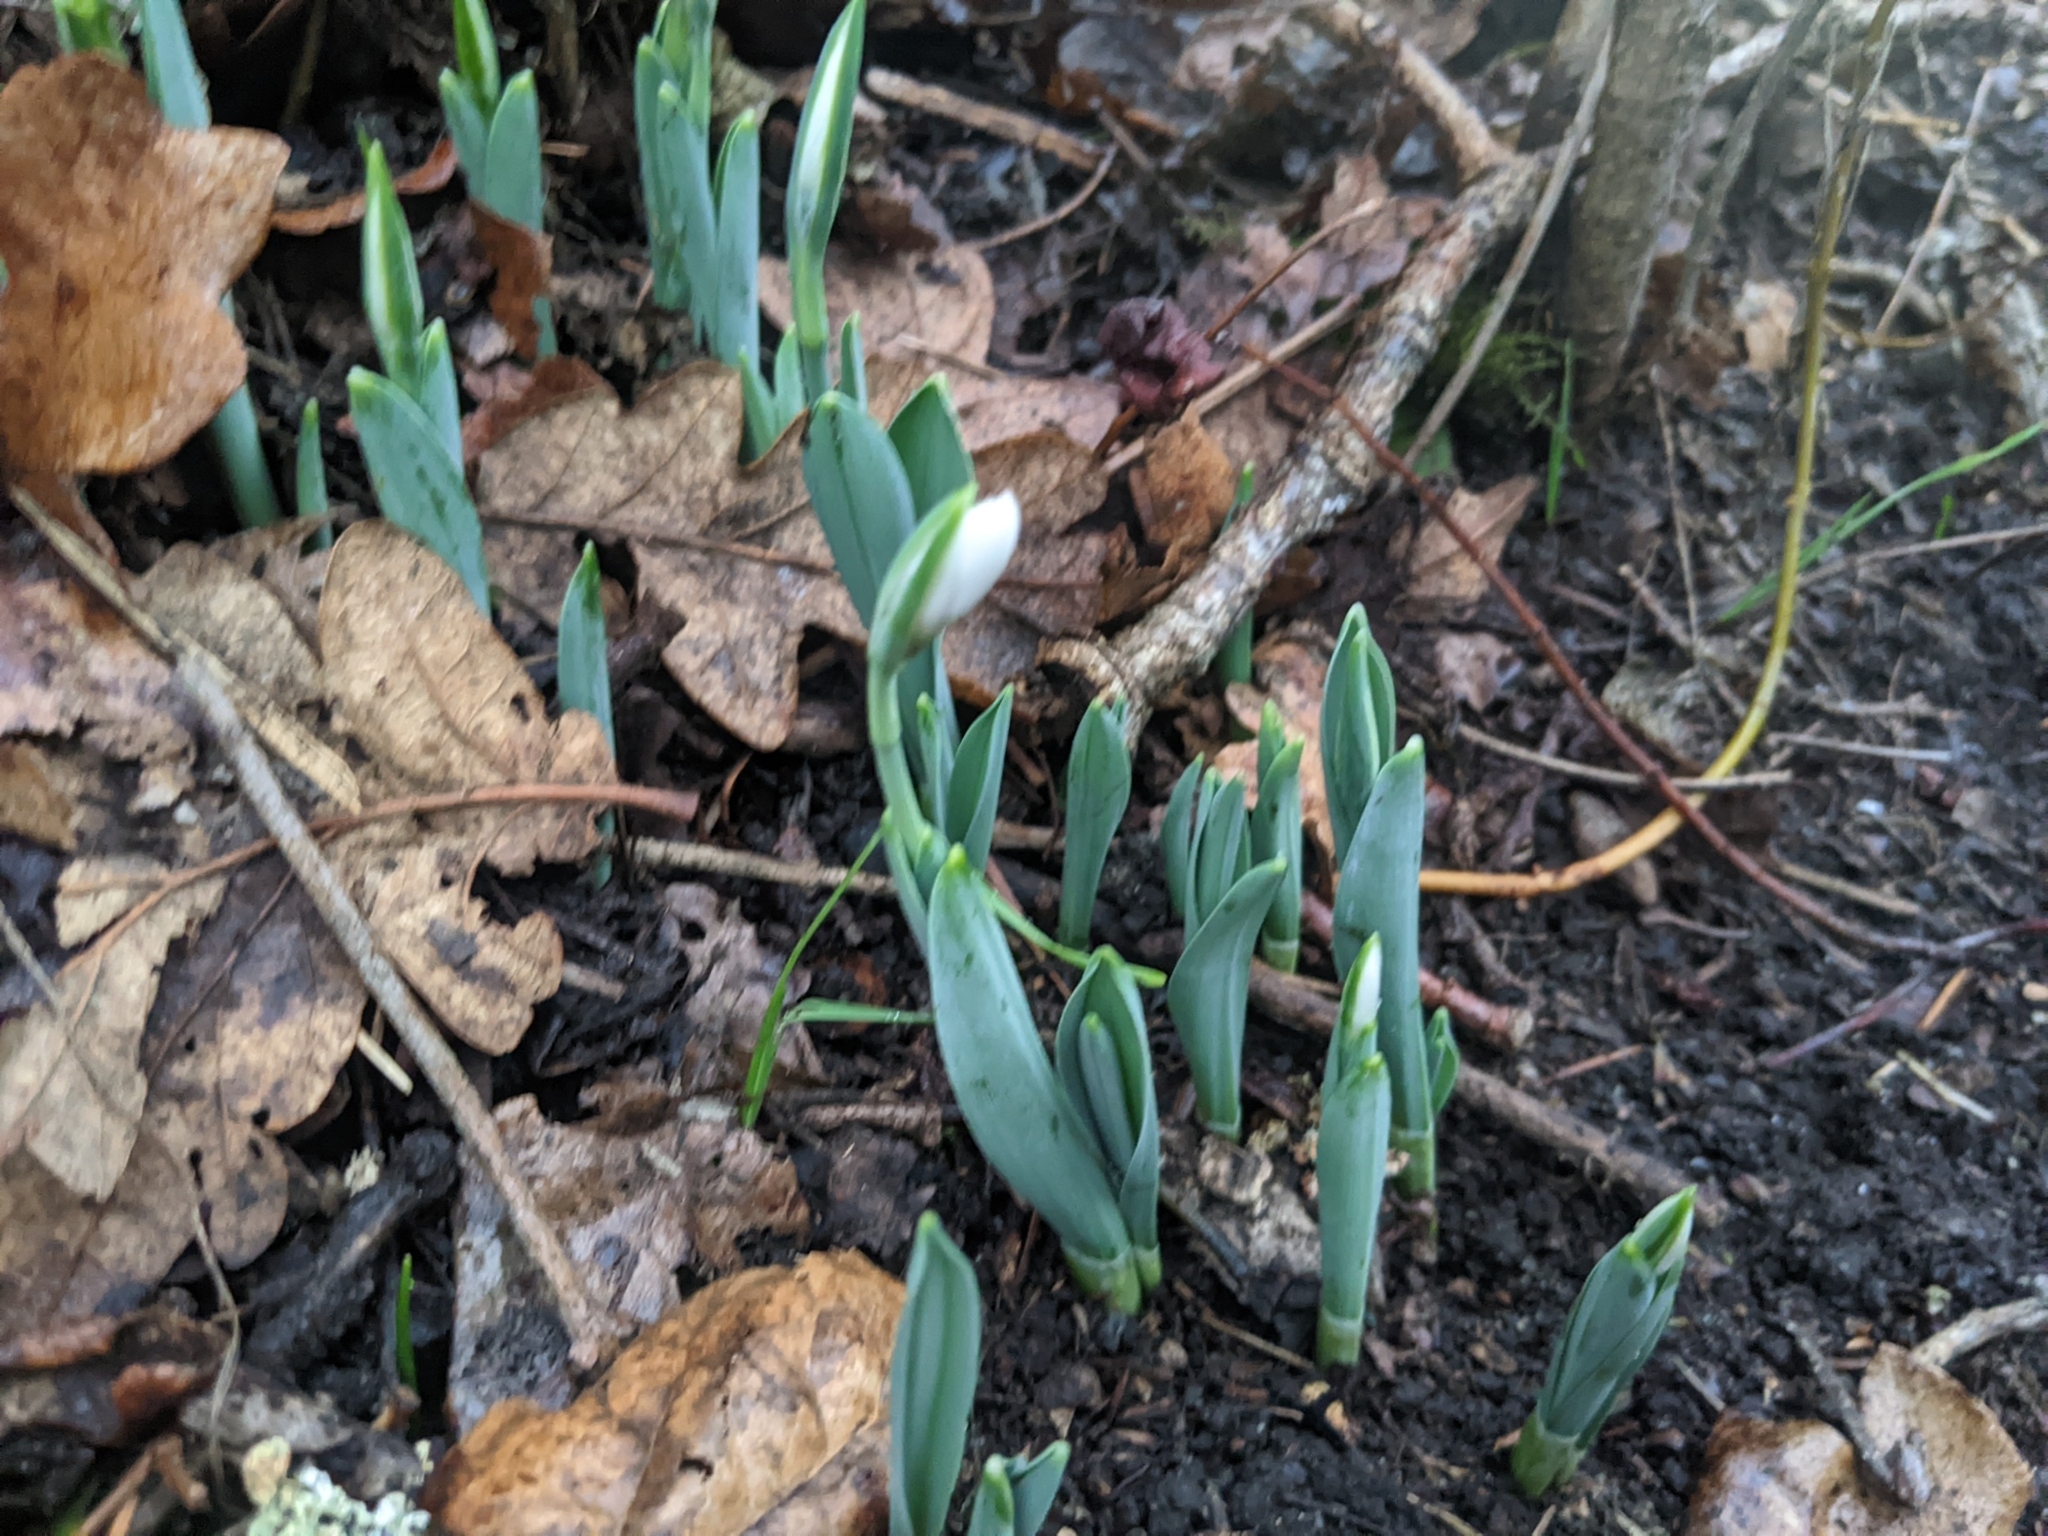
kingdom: Plantae
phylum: Tracheophyta
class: Liliopsida
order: Asparagales
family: Amaryllidaceae
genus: Galanthus
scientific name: Galanthus elwesii
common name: Greater snowdrop
